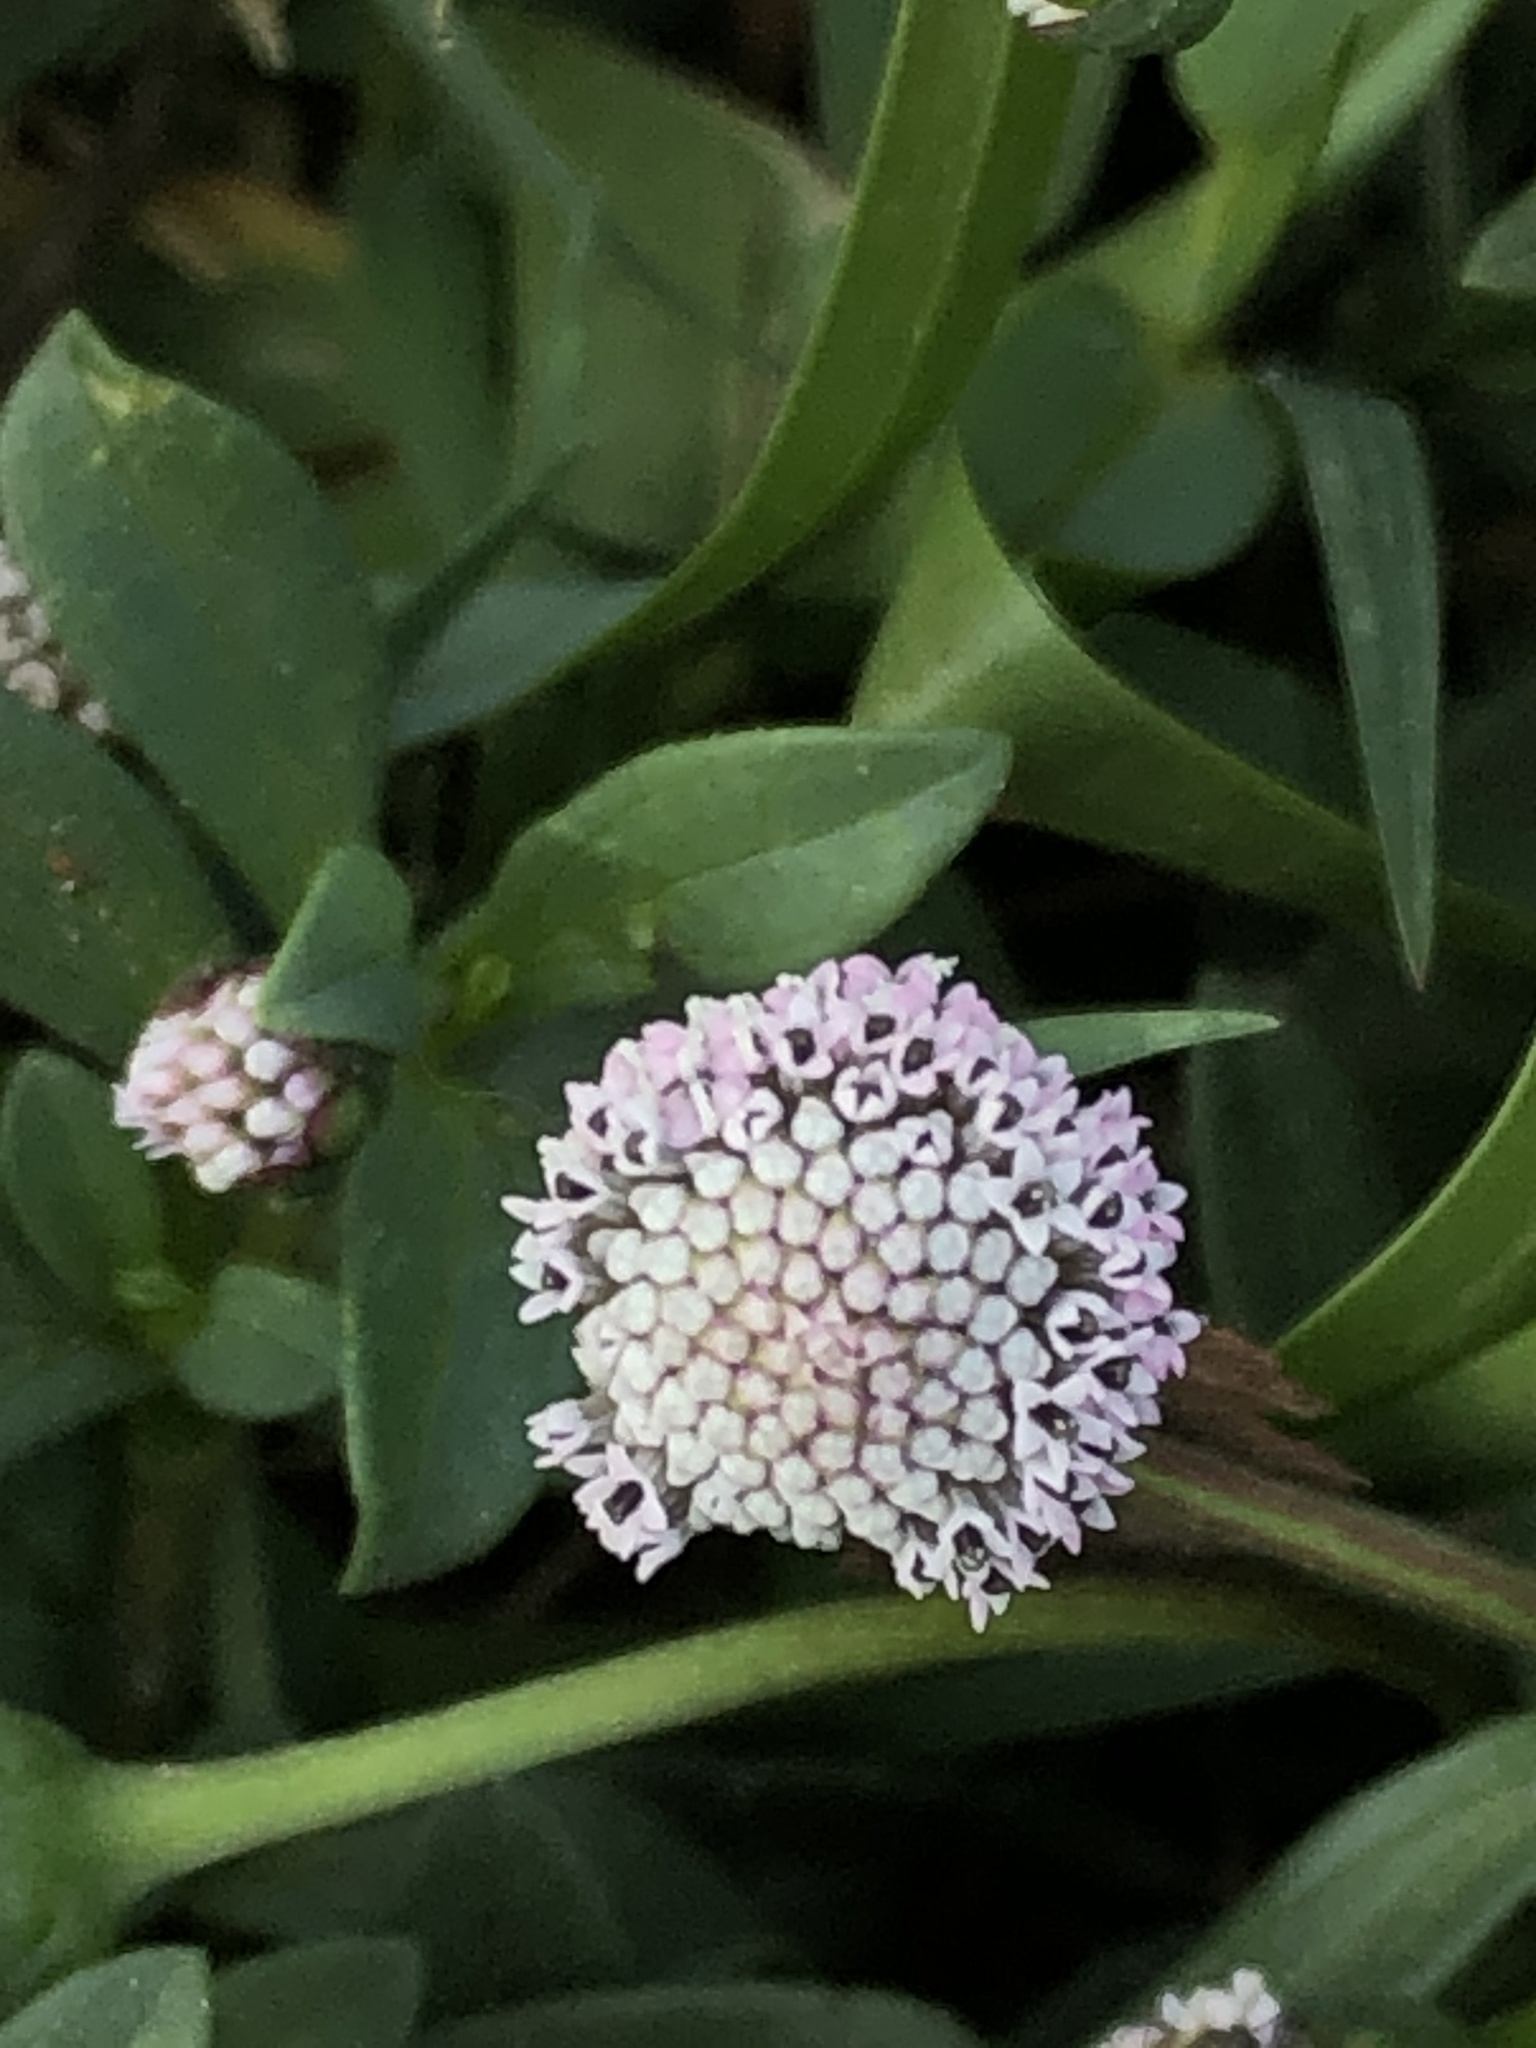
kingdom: Plantae
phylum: Tracheophyta
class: Magnoliopsida
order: Asterales
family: Asteraceae
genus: Spilanthes
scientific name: Spilanthes leiocarpa
